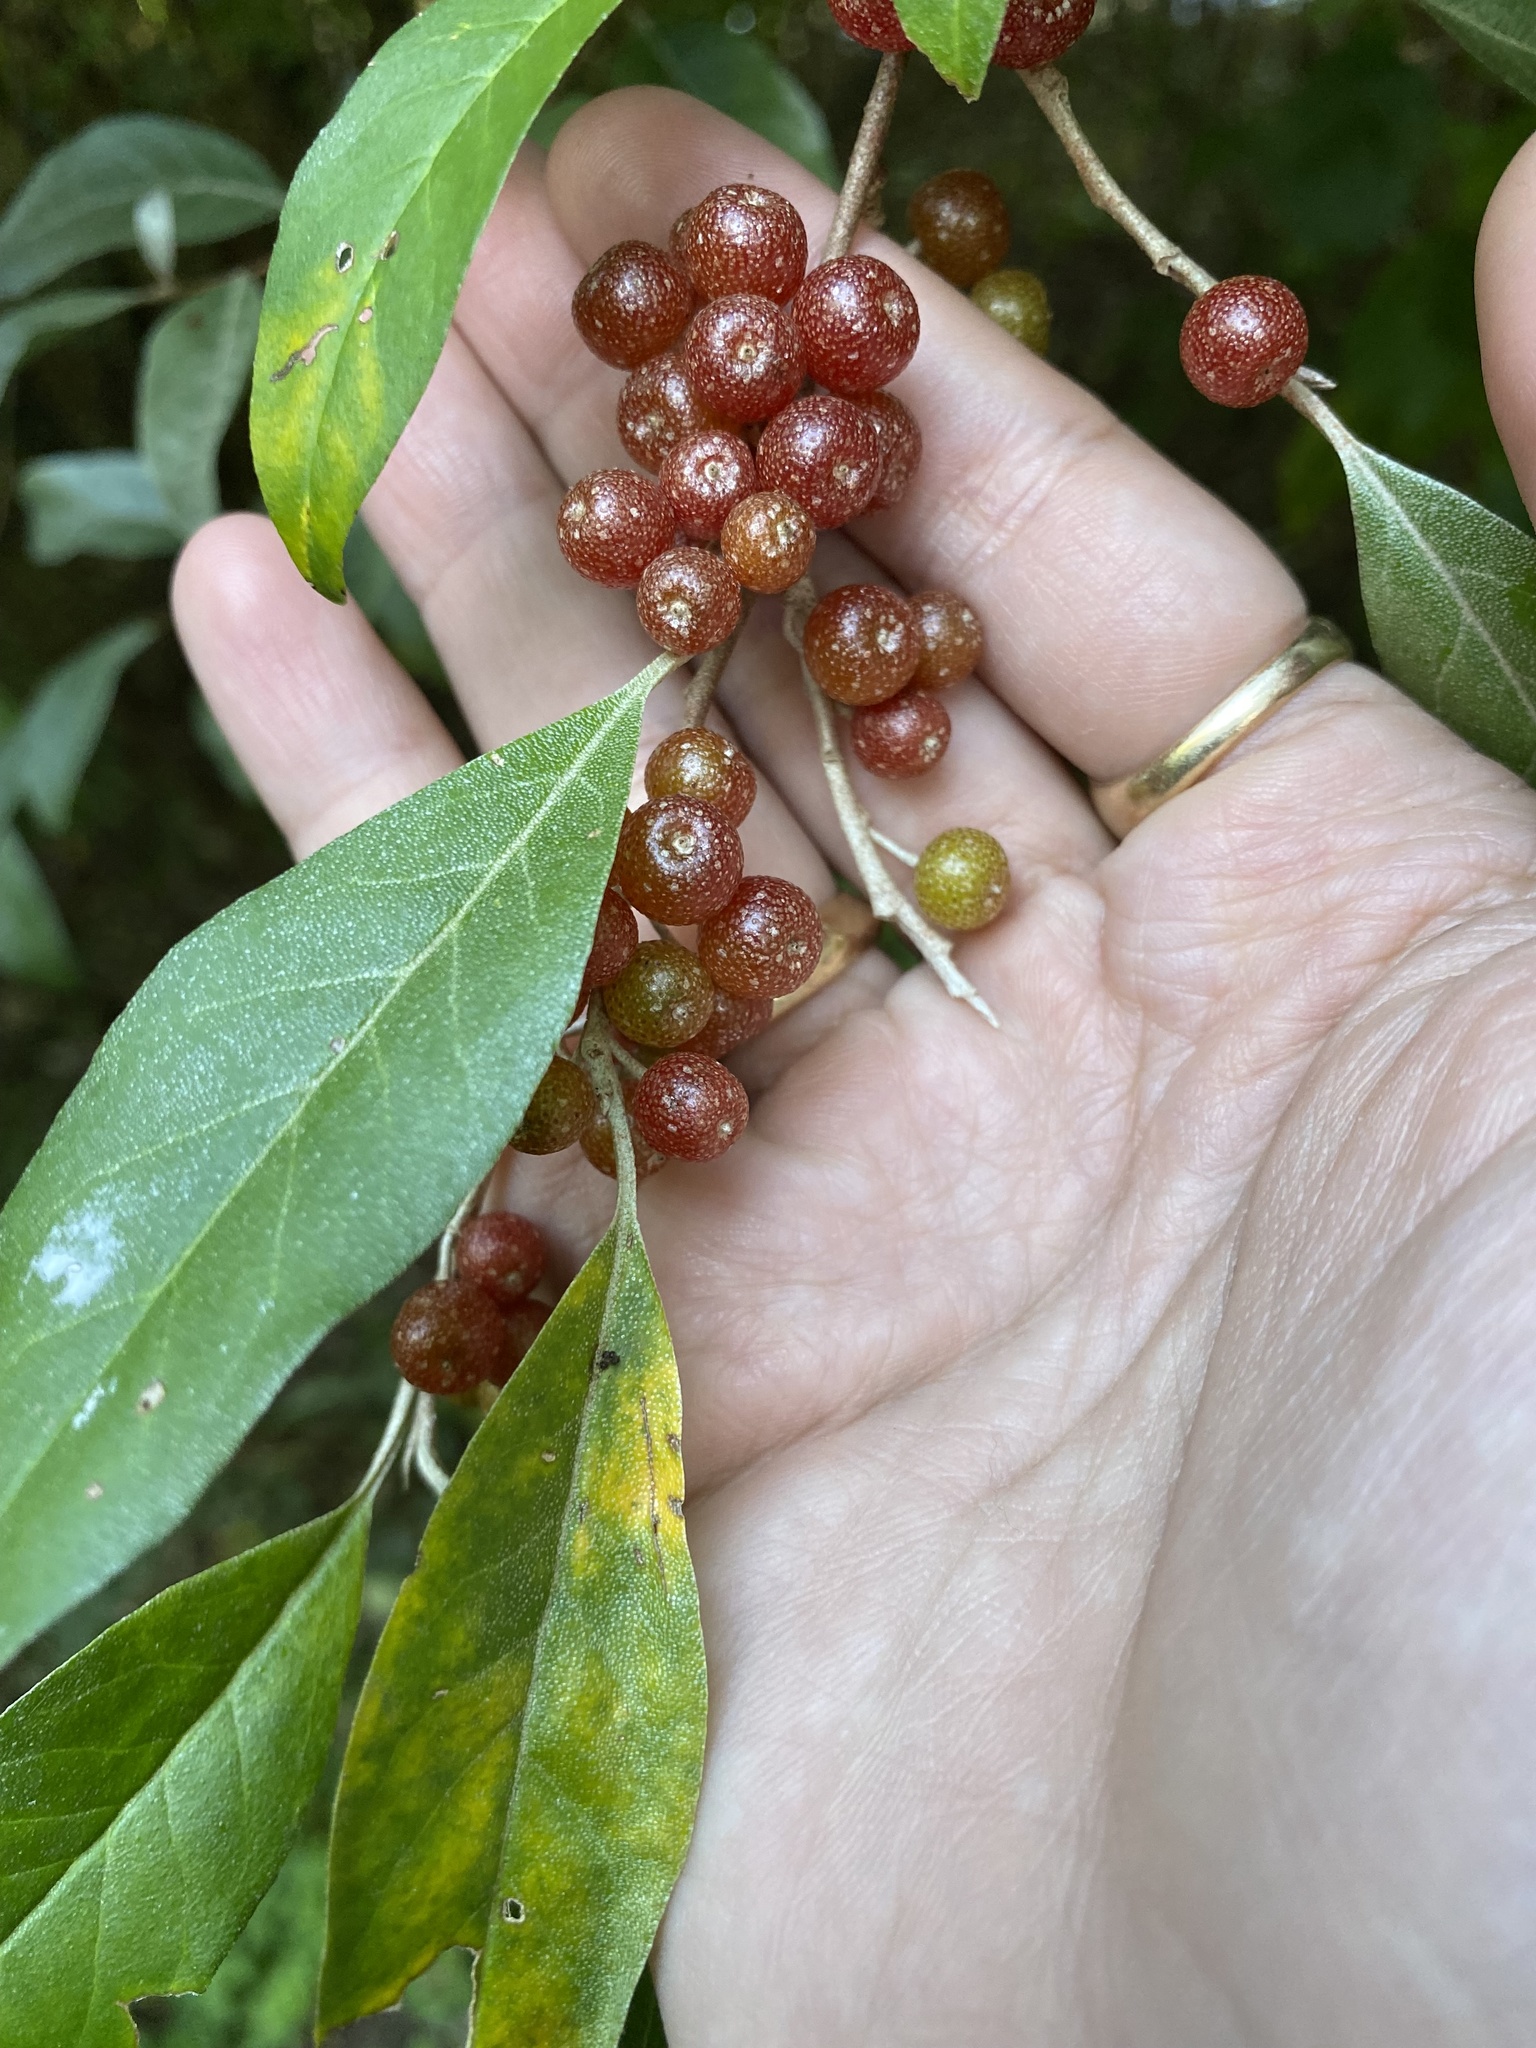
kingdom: Plantae
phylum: Tracheophyta
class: Magnoliopsida
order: Rosales
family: Elaeagnaceae
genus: Elaeagnus
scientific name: Elaeagnus umbellata
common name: Autumn olive
